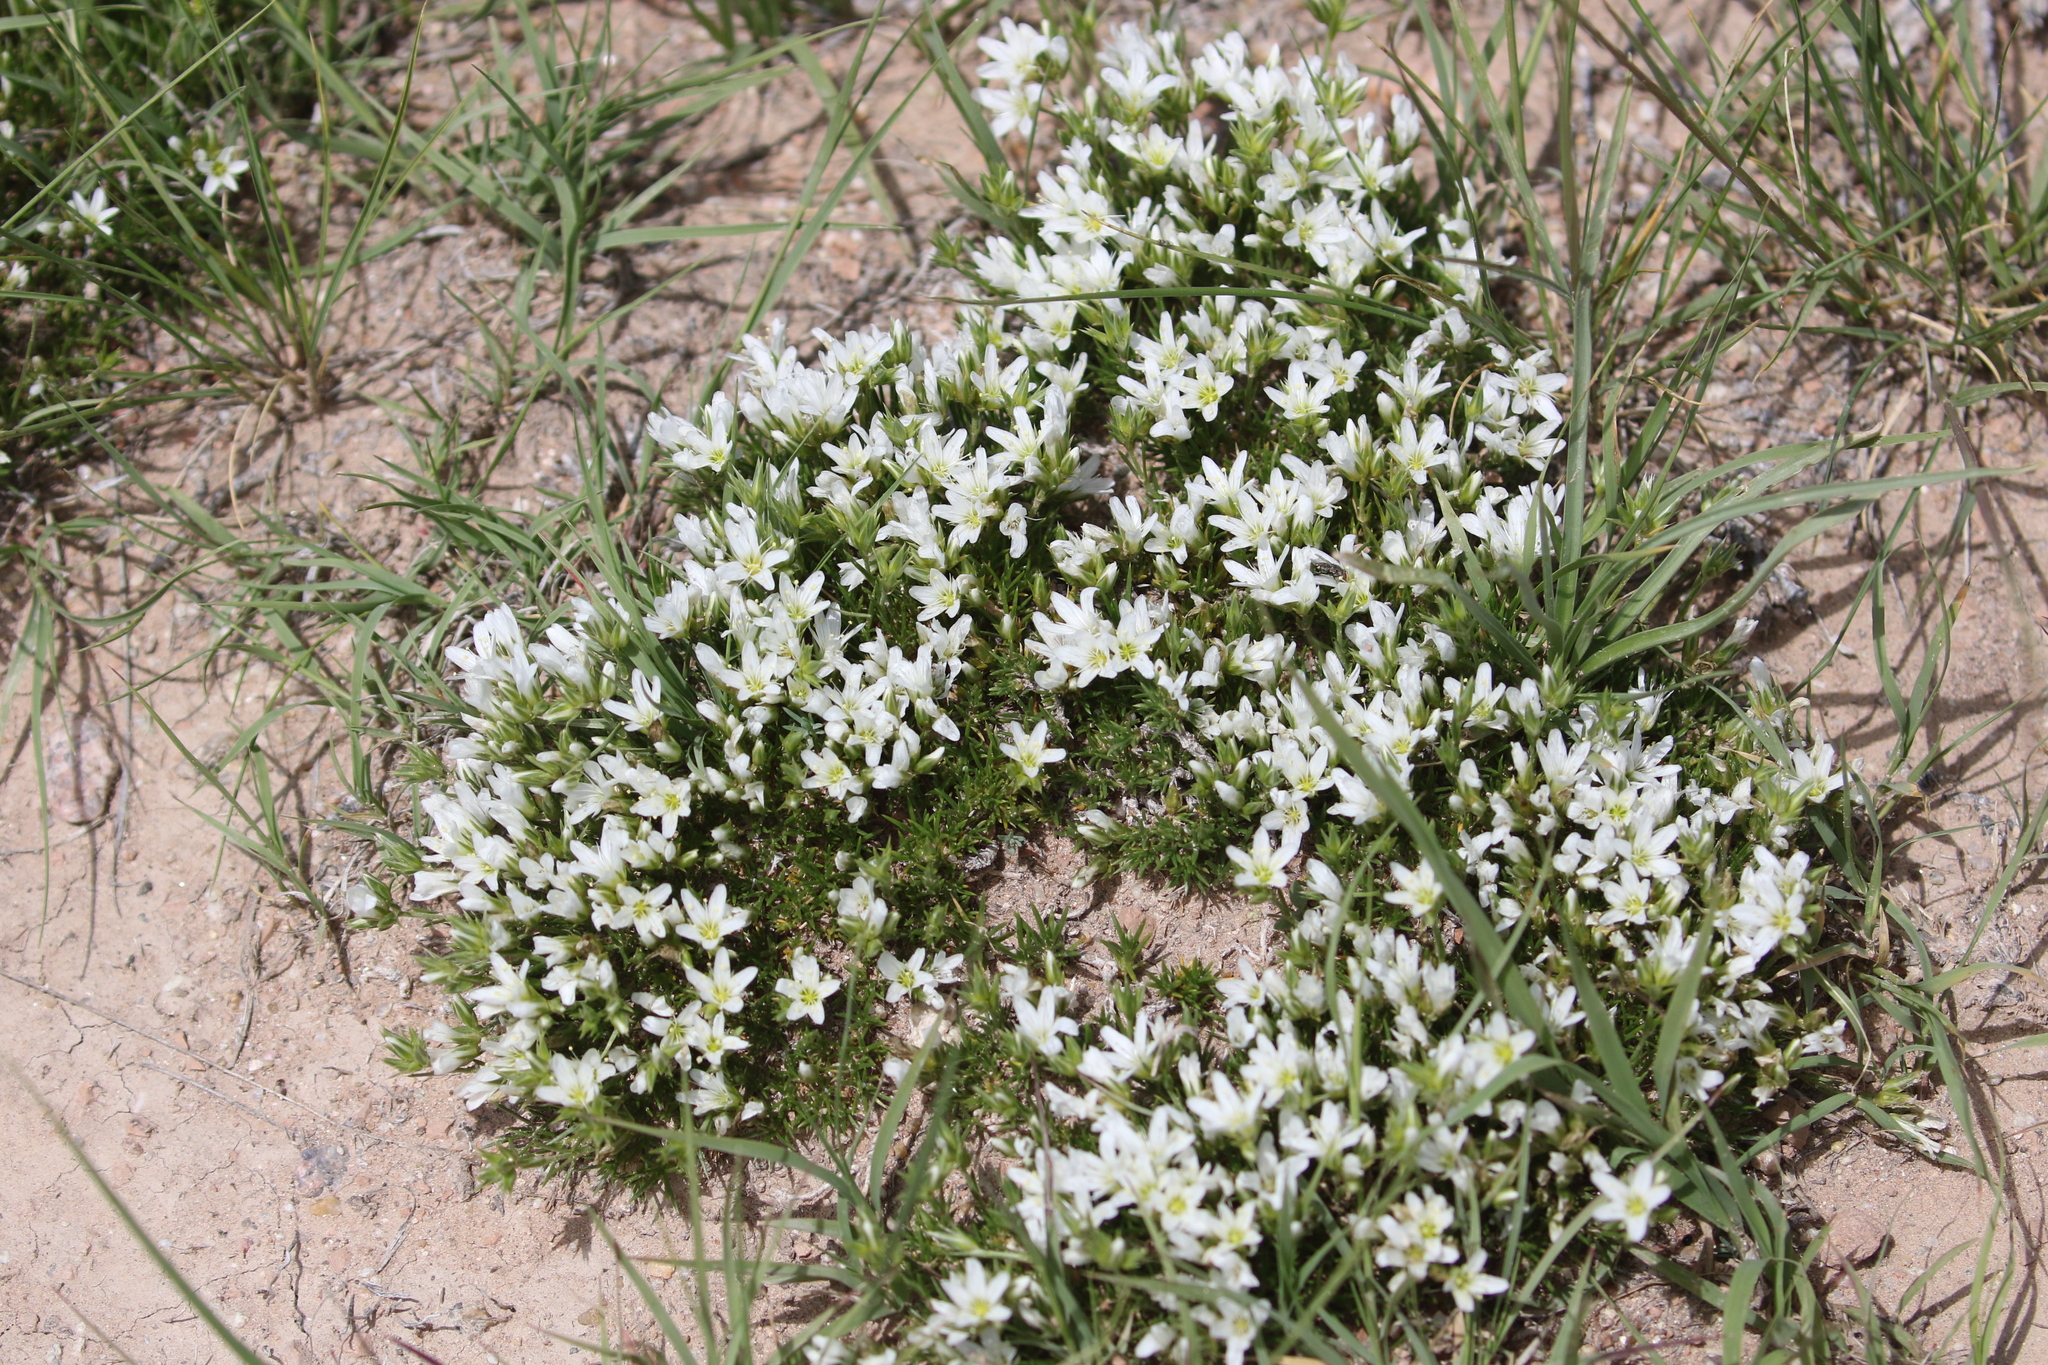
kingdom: Plantae
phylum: Tracheophyta
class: Magnoliopsida
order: Caryophyllales
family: Caryophyllaceae
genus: Eremogone
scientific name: Eremogone hookeri
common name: Hooker's sandwort
